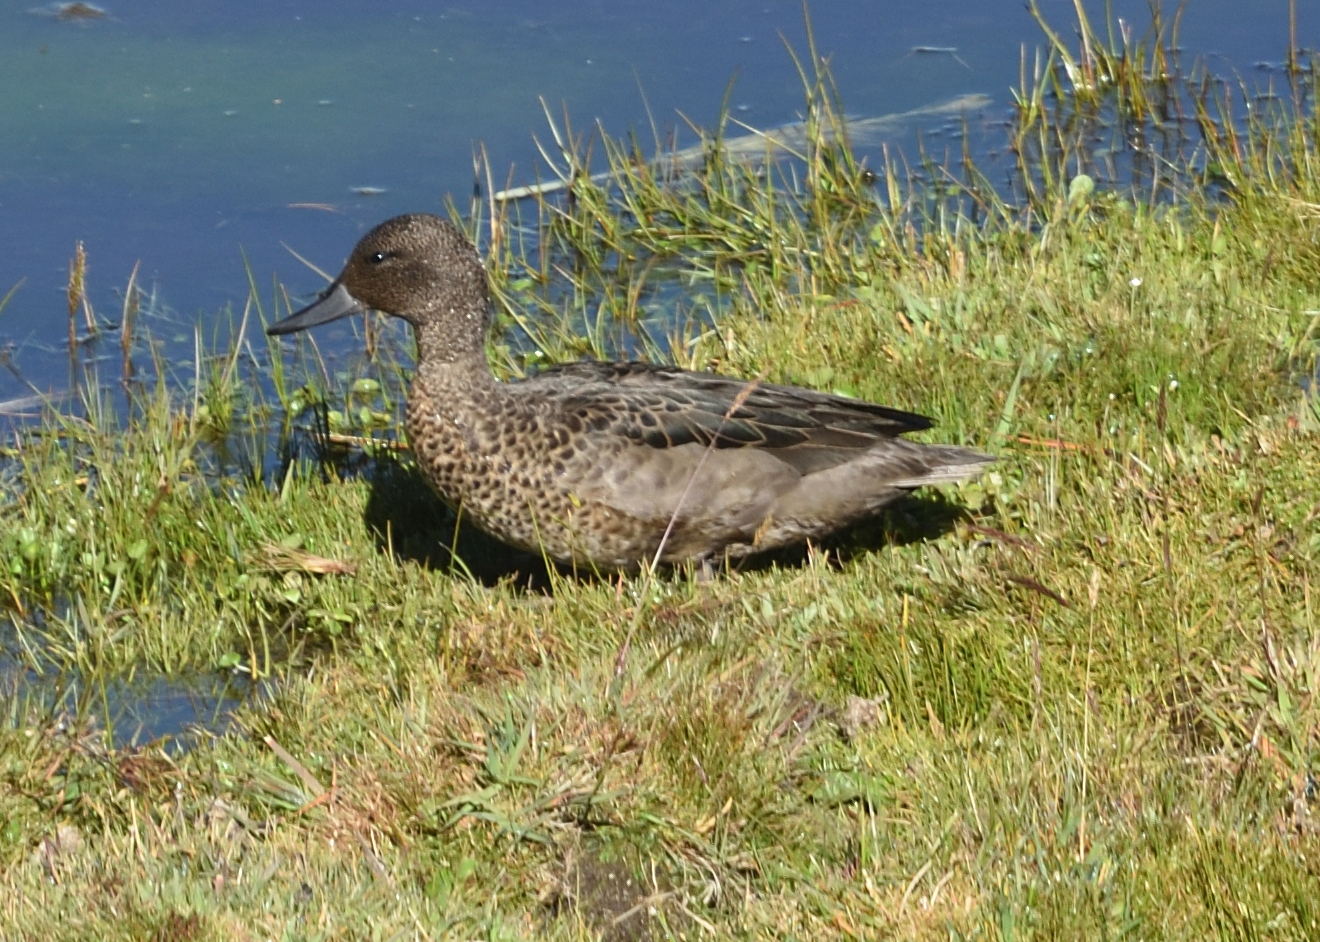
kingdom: Animalia
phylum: Chordata
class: Aves
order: Anseriformes
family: Anatidae
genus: Anas
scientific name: Anas andium
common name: Andean teal
